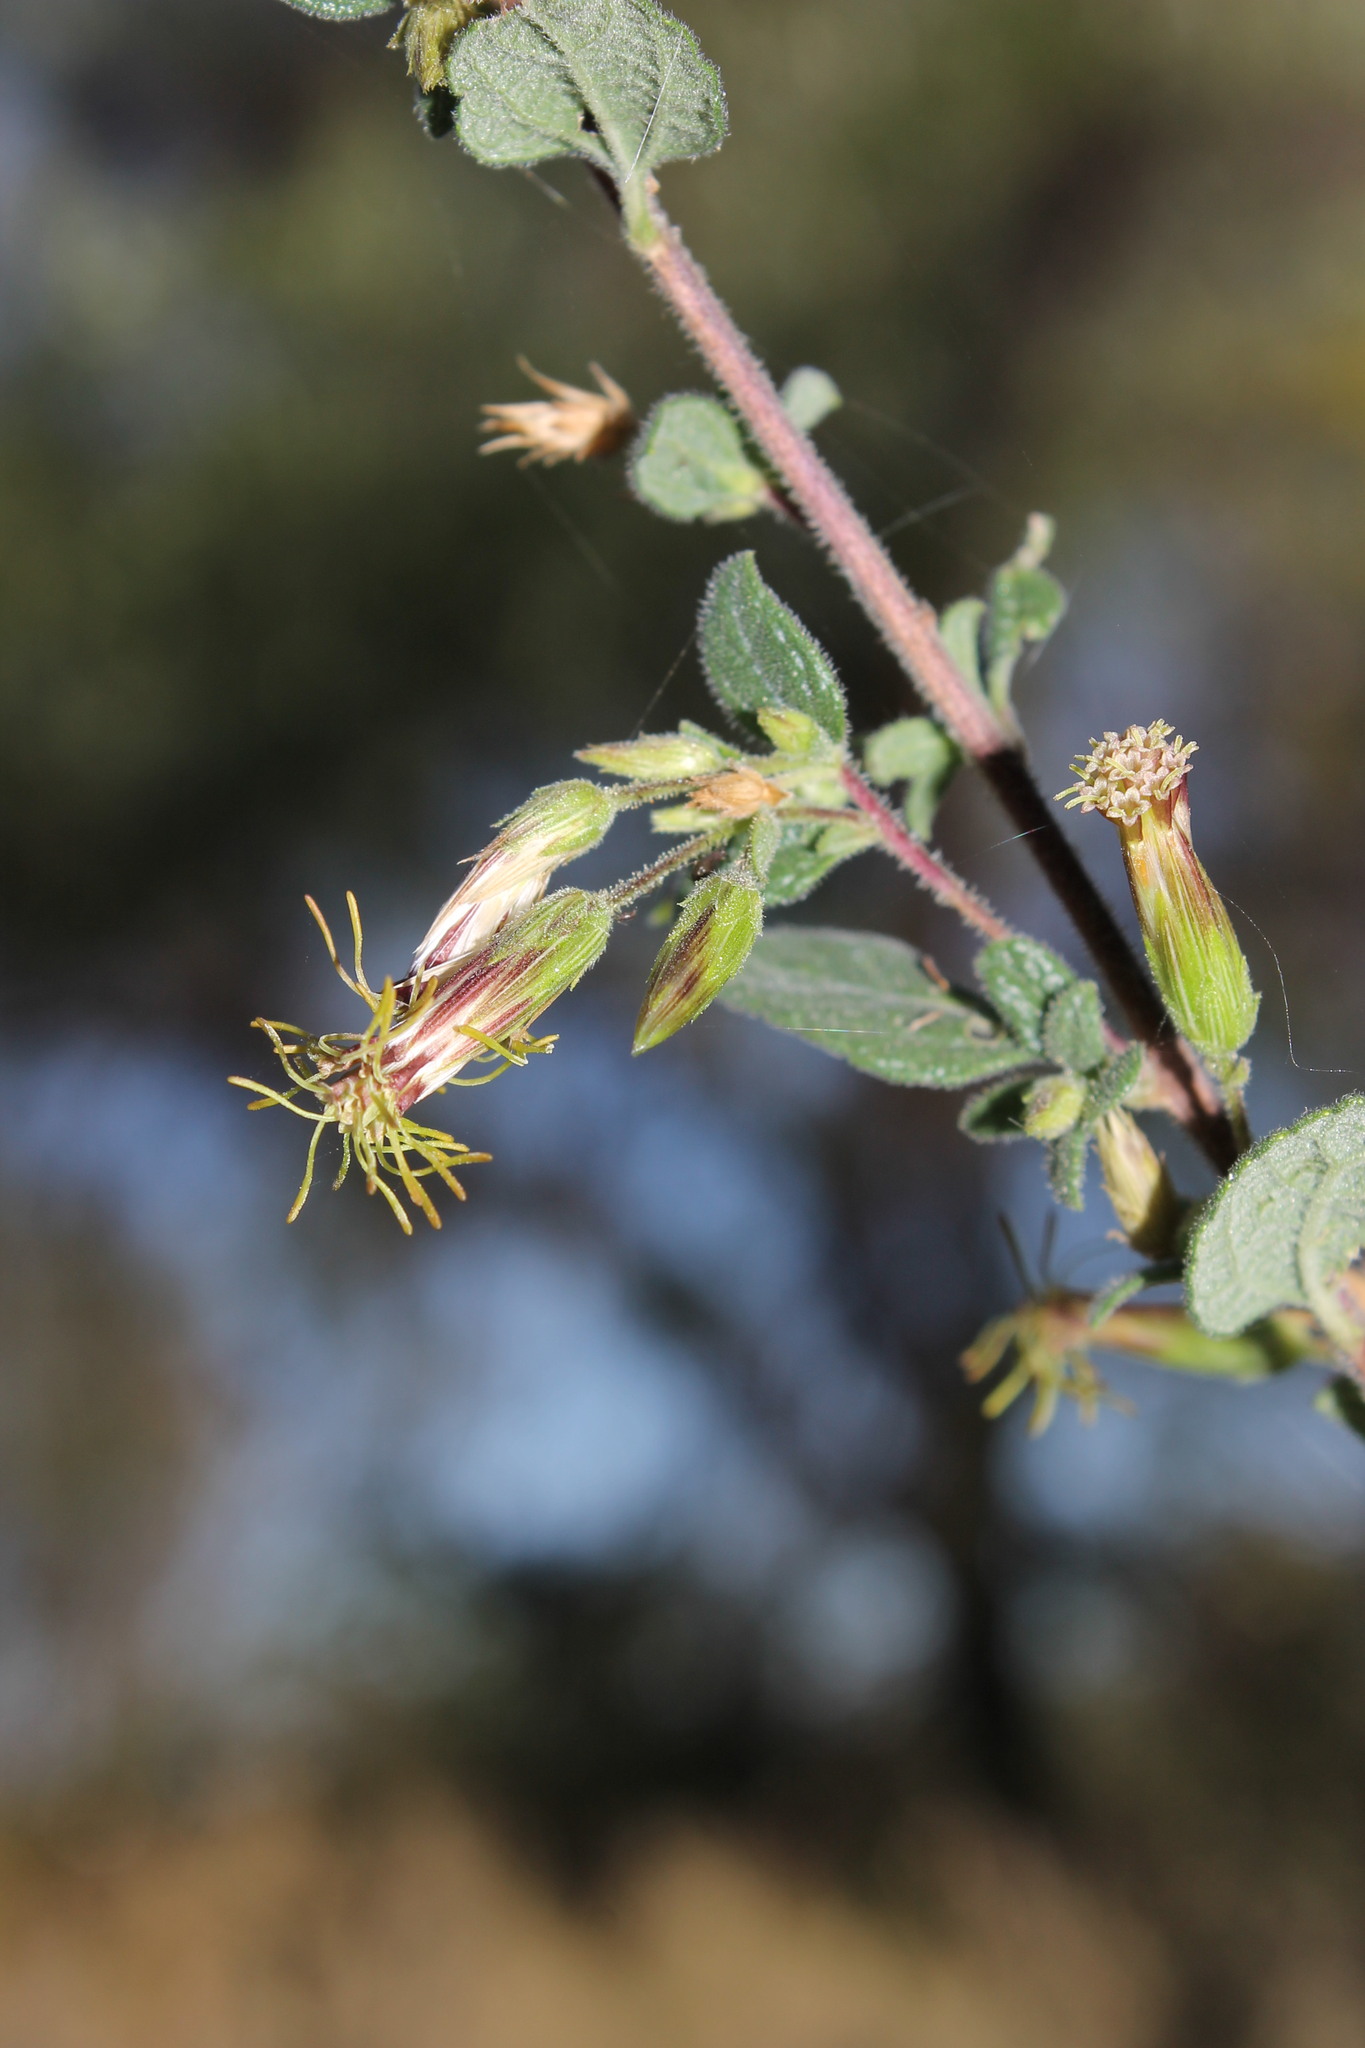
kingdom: Plantae
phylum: Tracheophyta
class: Magnoliopsida
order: Asterales
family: Asteraceae
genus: Brickellia
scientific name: Brickellia secundiflora
